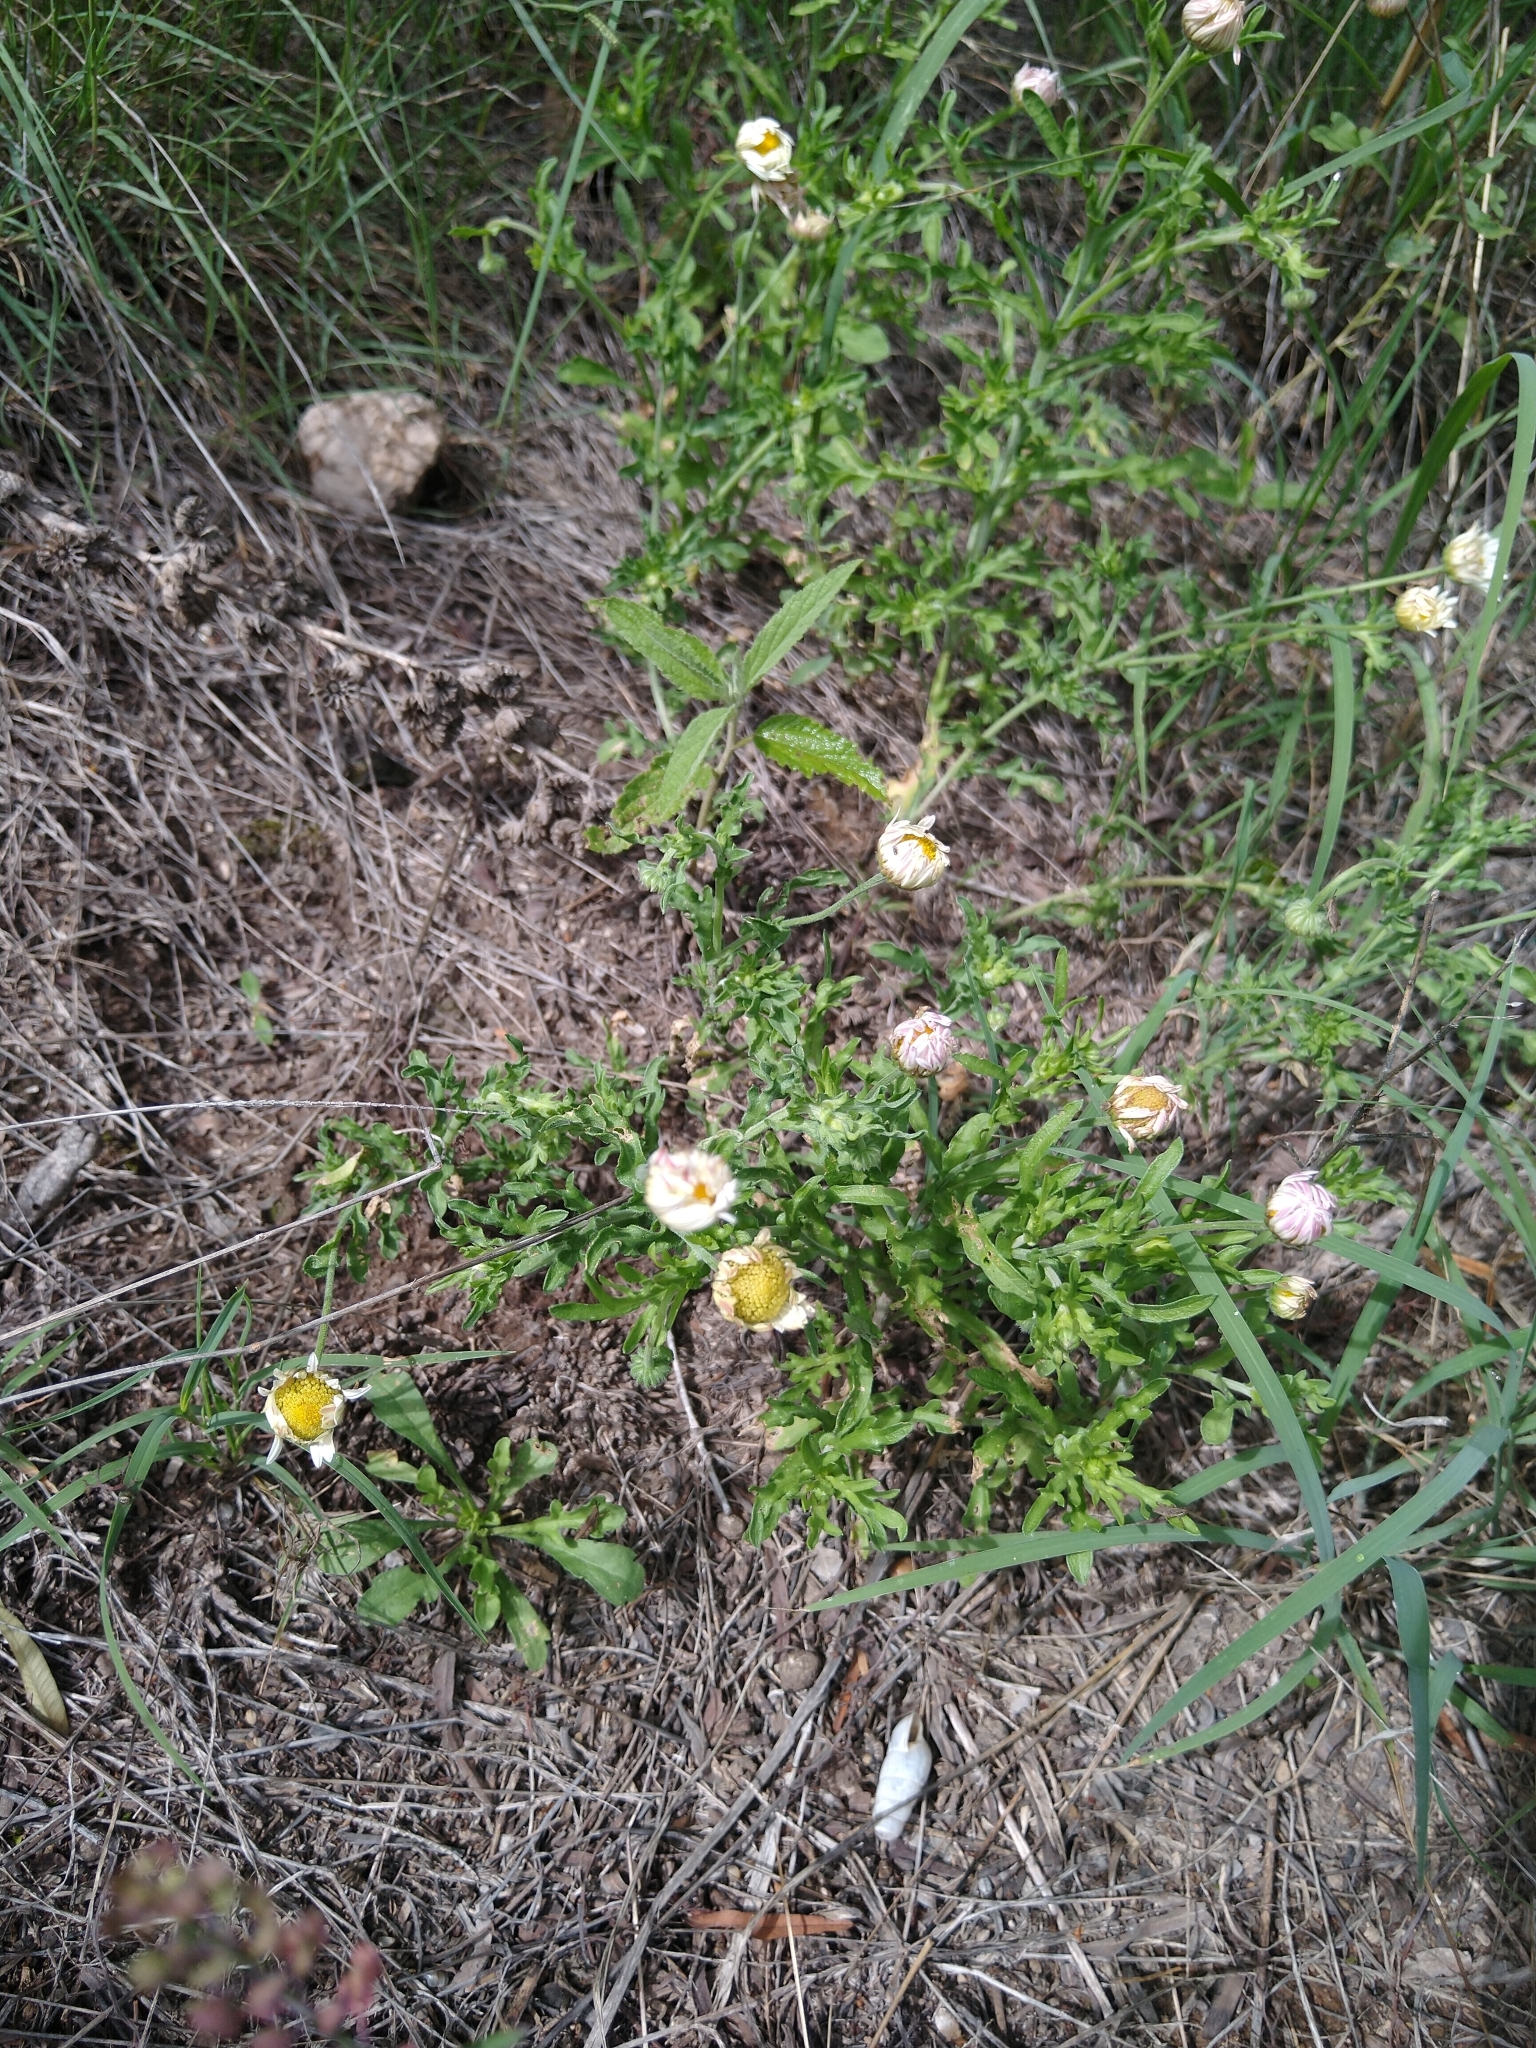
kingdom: Plantae
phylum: Tracheophyta
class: Magnoliopsida
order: Asterales
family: Asteraceae
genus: Aphanostephus
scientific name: Aphanostephus ramosissimus
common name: Plains lazy daisy
